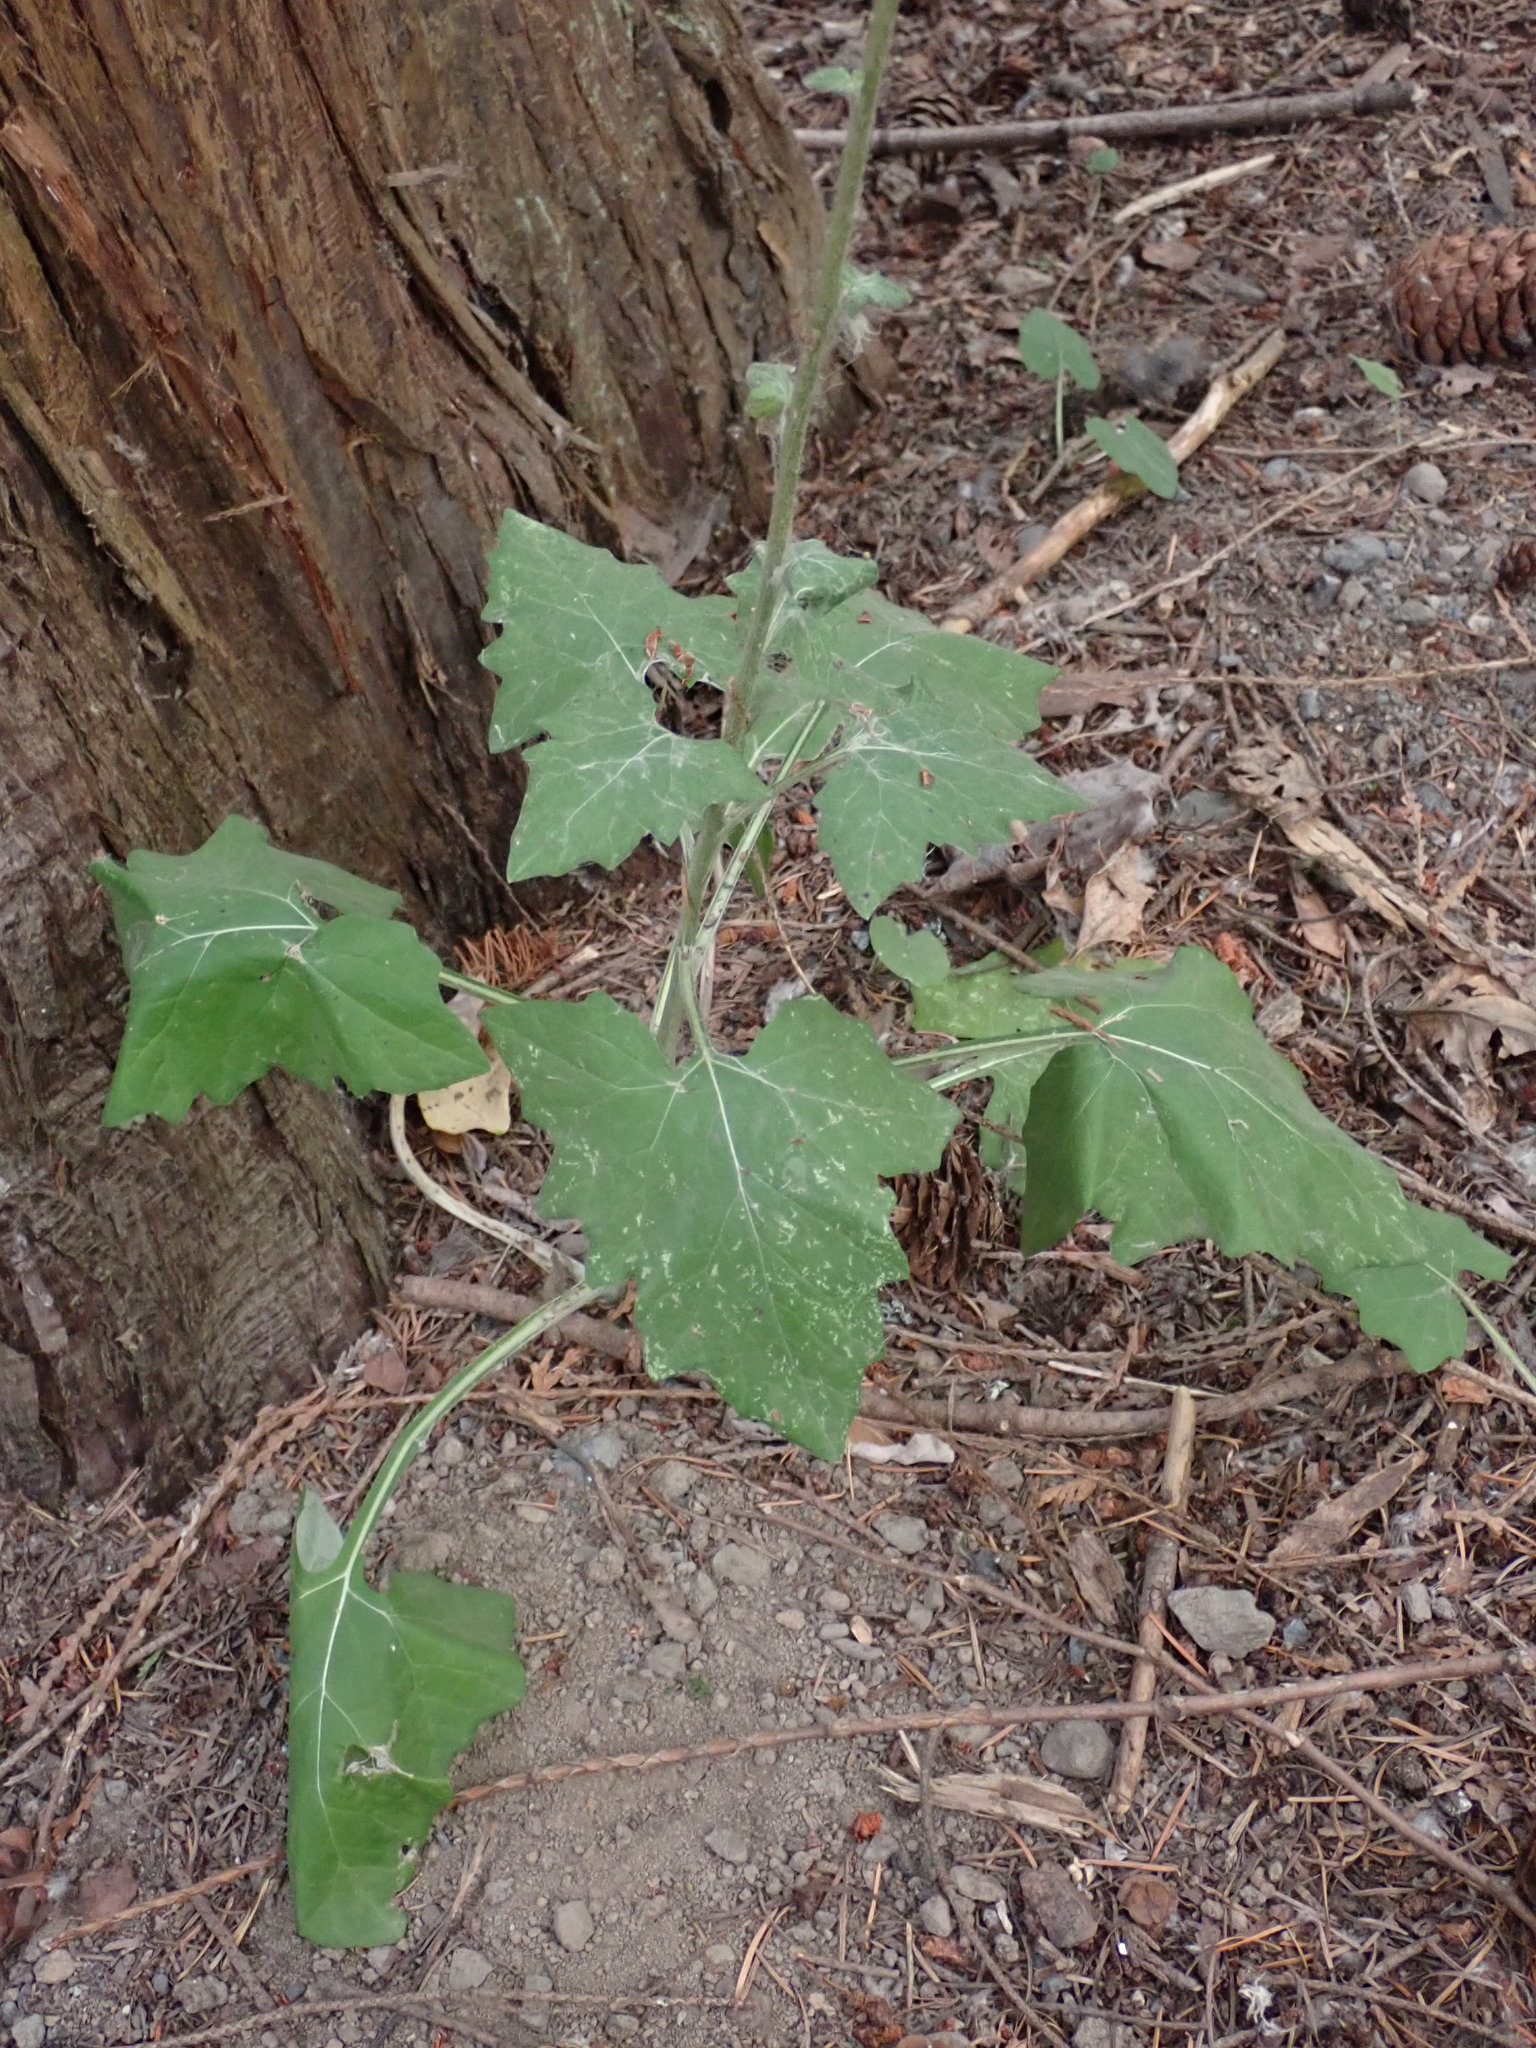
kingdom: Plantae
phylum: Tracheophyta
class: Magnoliopsida
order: Asterales
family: Asteraceae
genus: Adenocaulon
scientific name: Adenocaulon bicolor
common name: Trailplant
